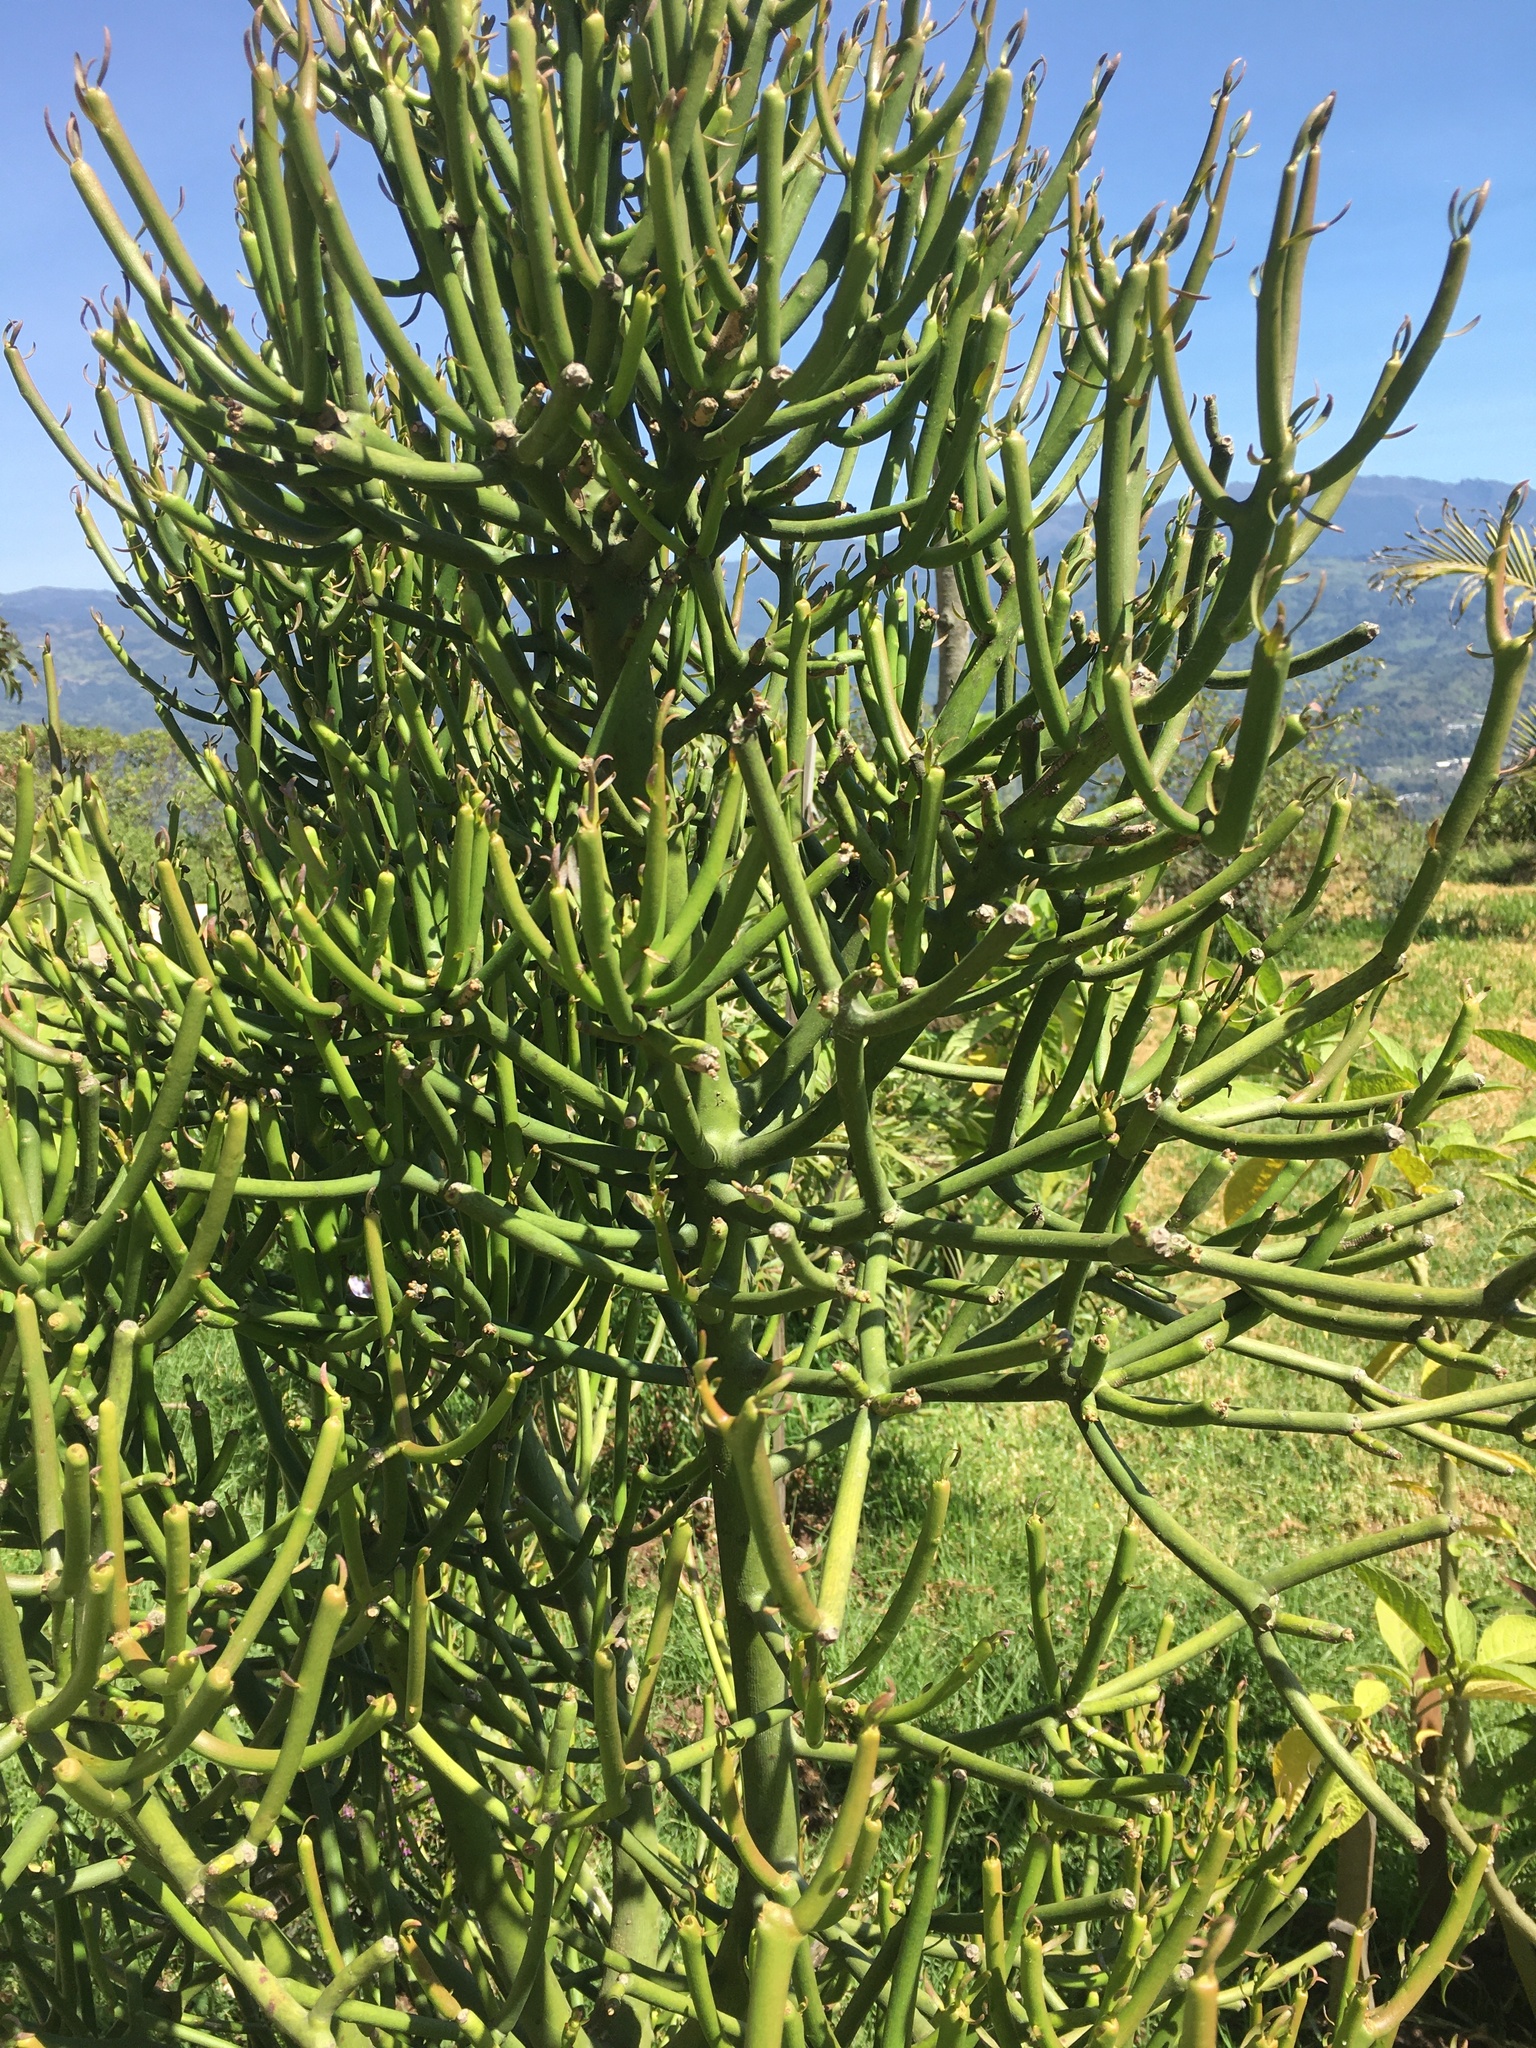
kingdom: Plantae
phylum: Tracheophyta
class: Magnoliopsida
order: Malpighiales
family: Euphorbiaceae
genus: Euphorbia
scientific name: Euphorbia tirucalli
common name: Indiantree spurge
